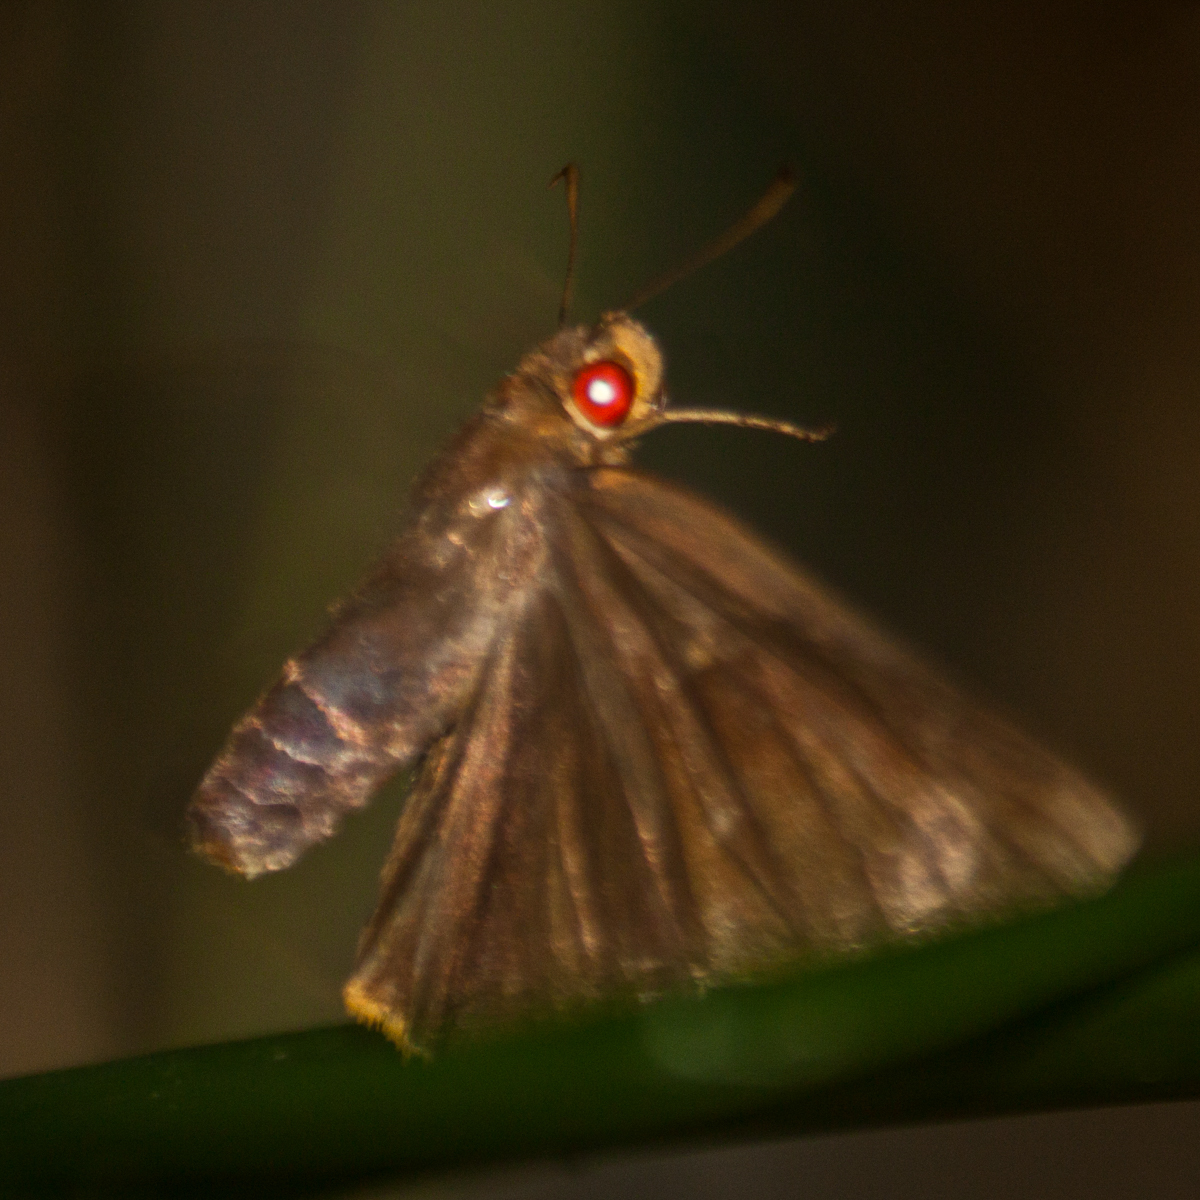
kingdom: Animalia
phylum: Arthropoda
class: Insecta
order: Lepidoptera
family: Hesperiidae
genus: Matapa
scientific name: Matapa druna
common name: Grey-brand redeye
